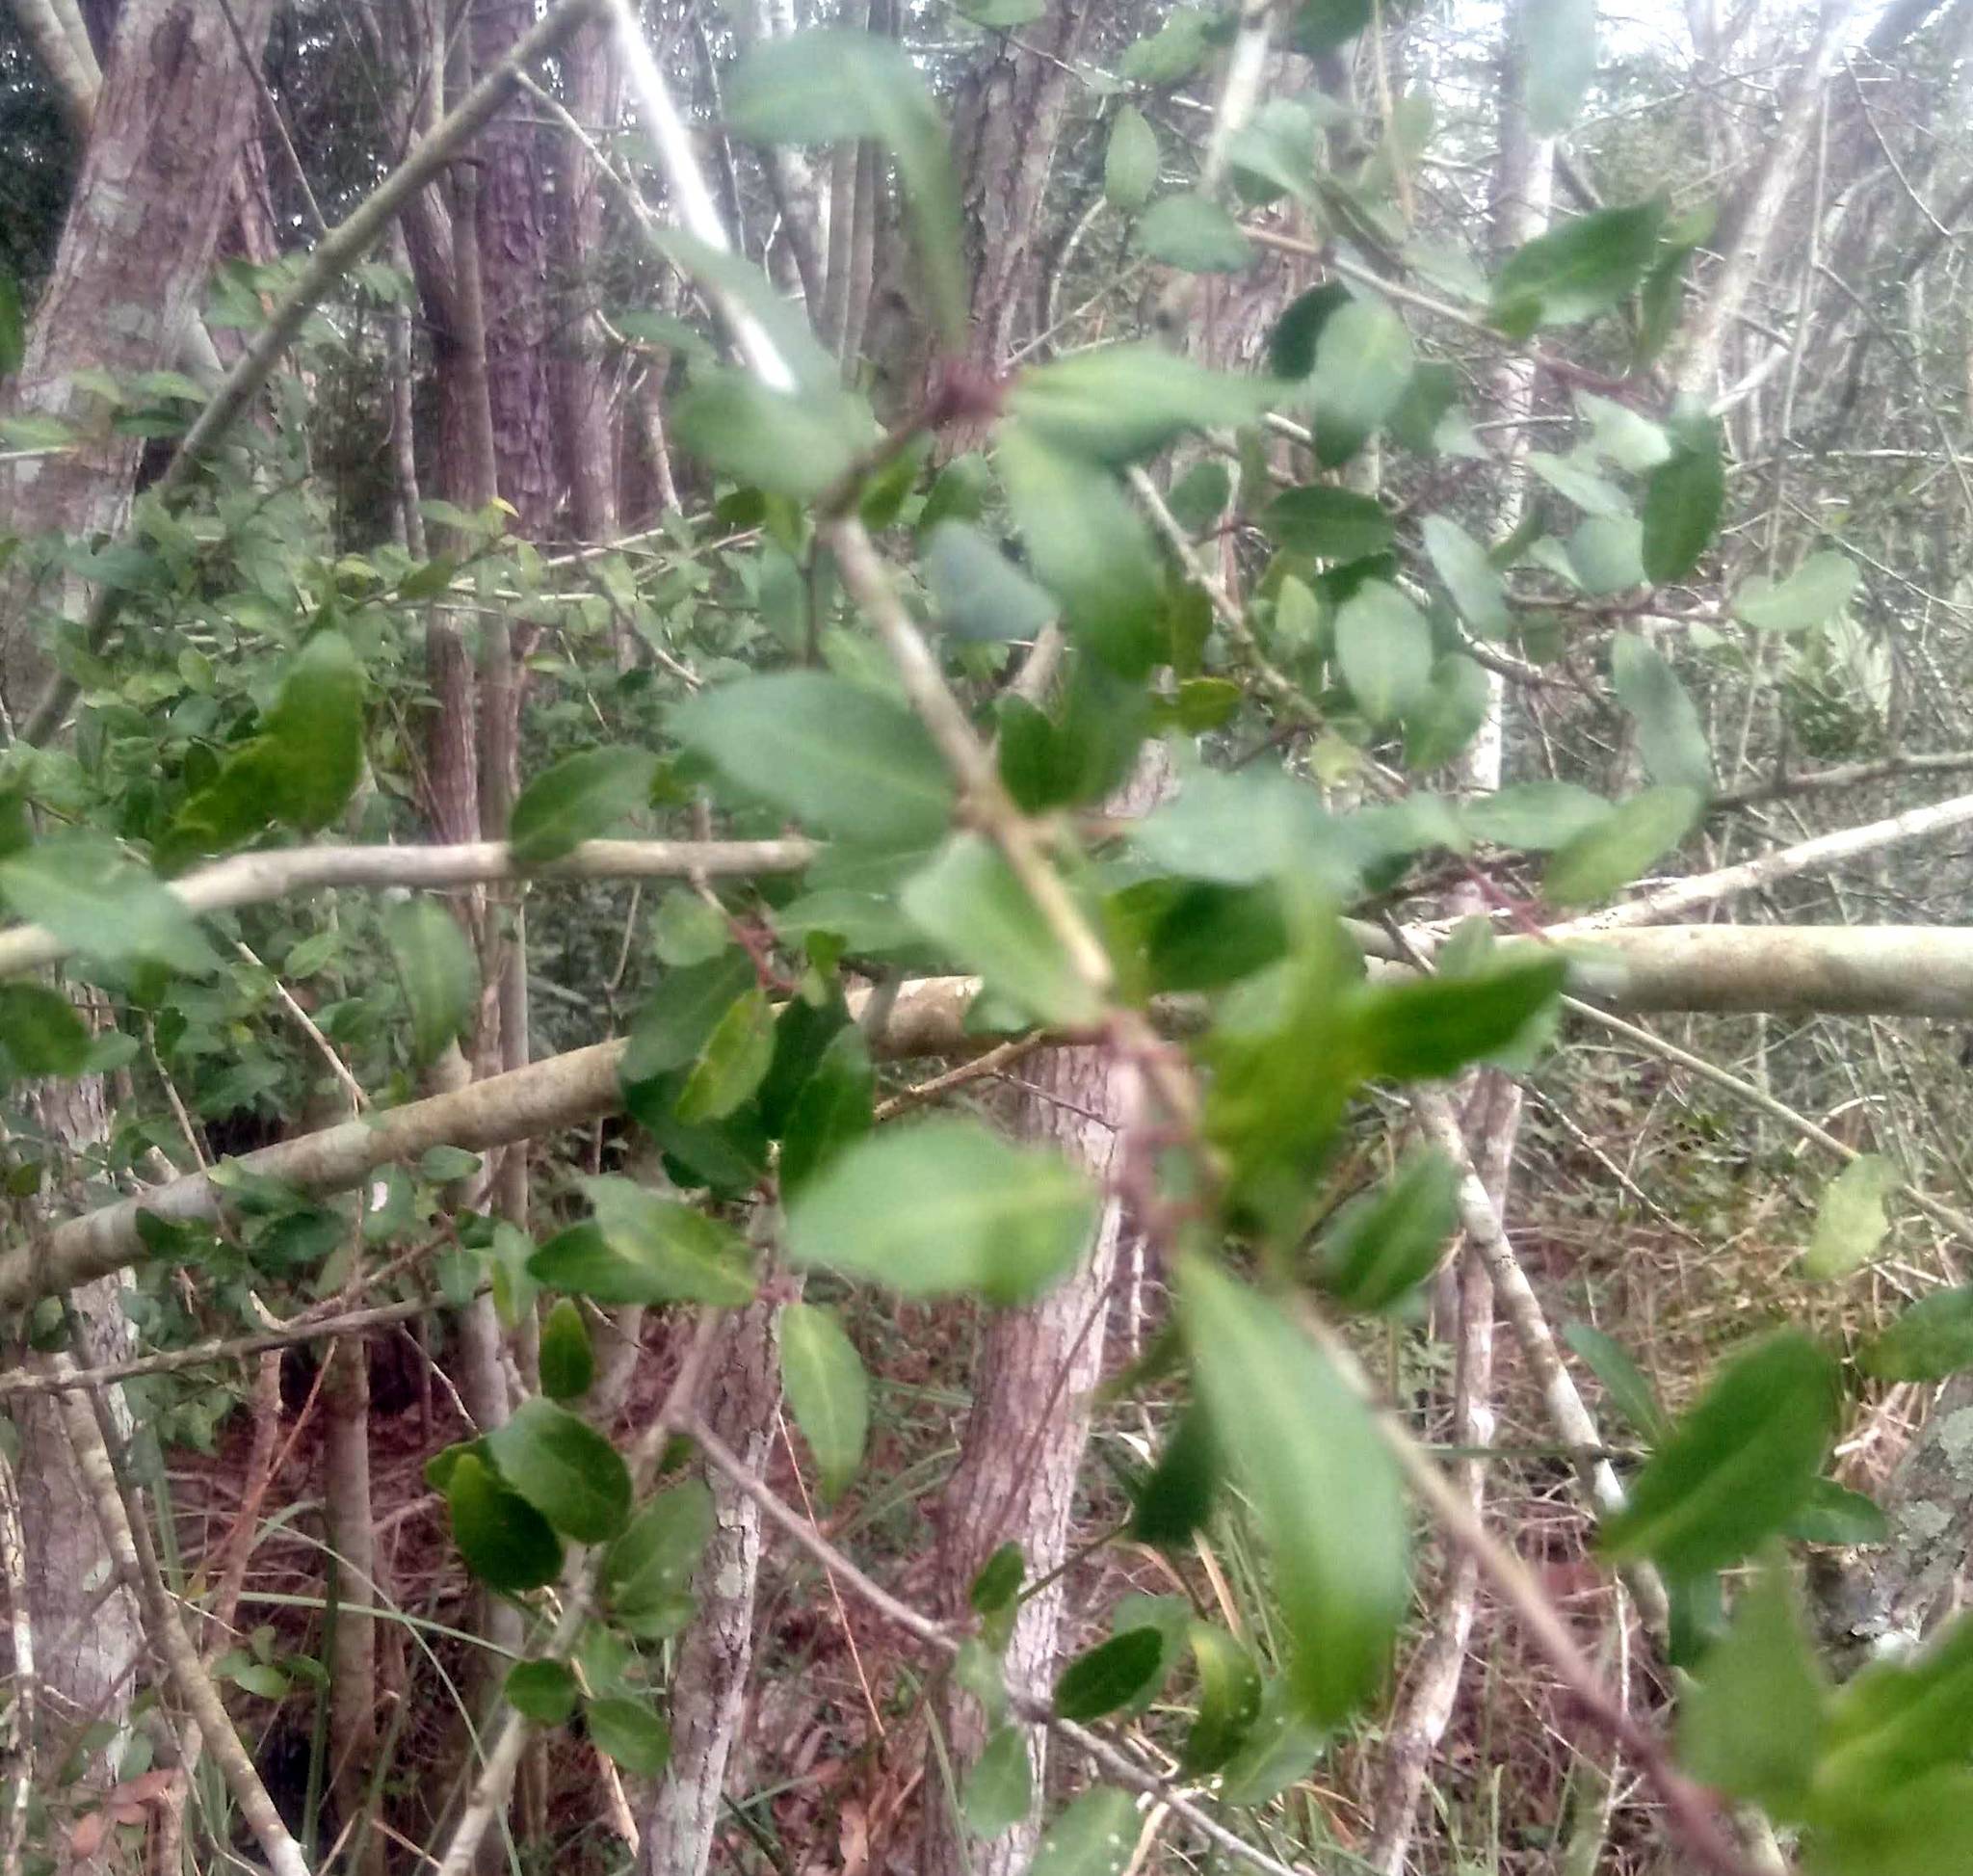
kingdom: Plantae
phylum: Tracheophyta
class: Magnoliopsida
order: Aquifoliales
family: Aquifoliaceae
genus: Ilex
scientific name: Ilex vomitoria
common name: Yaupon holly
